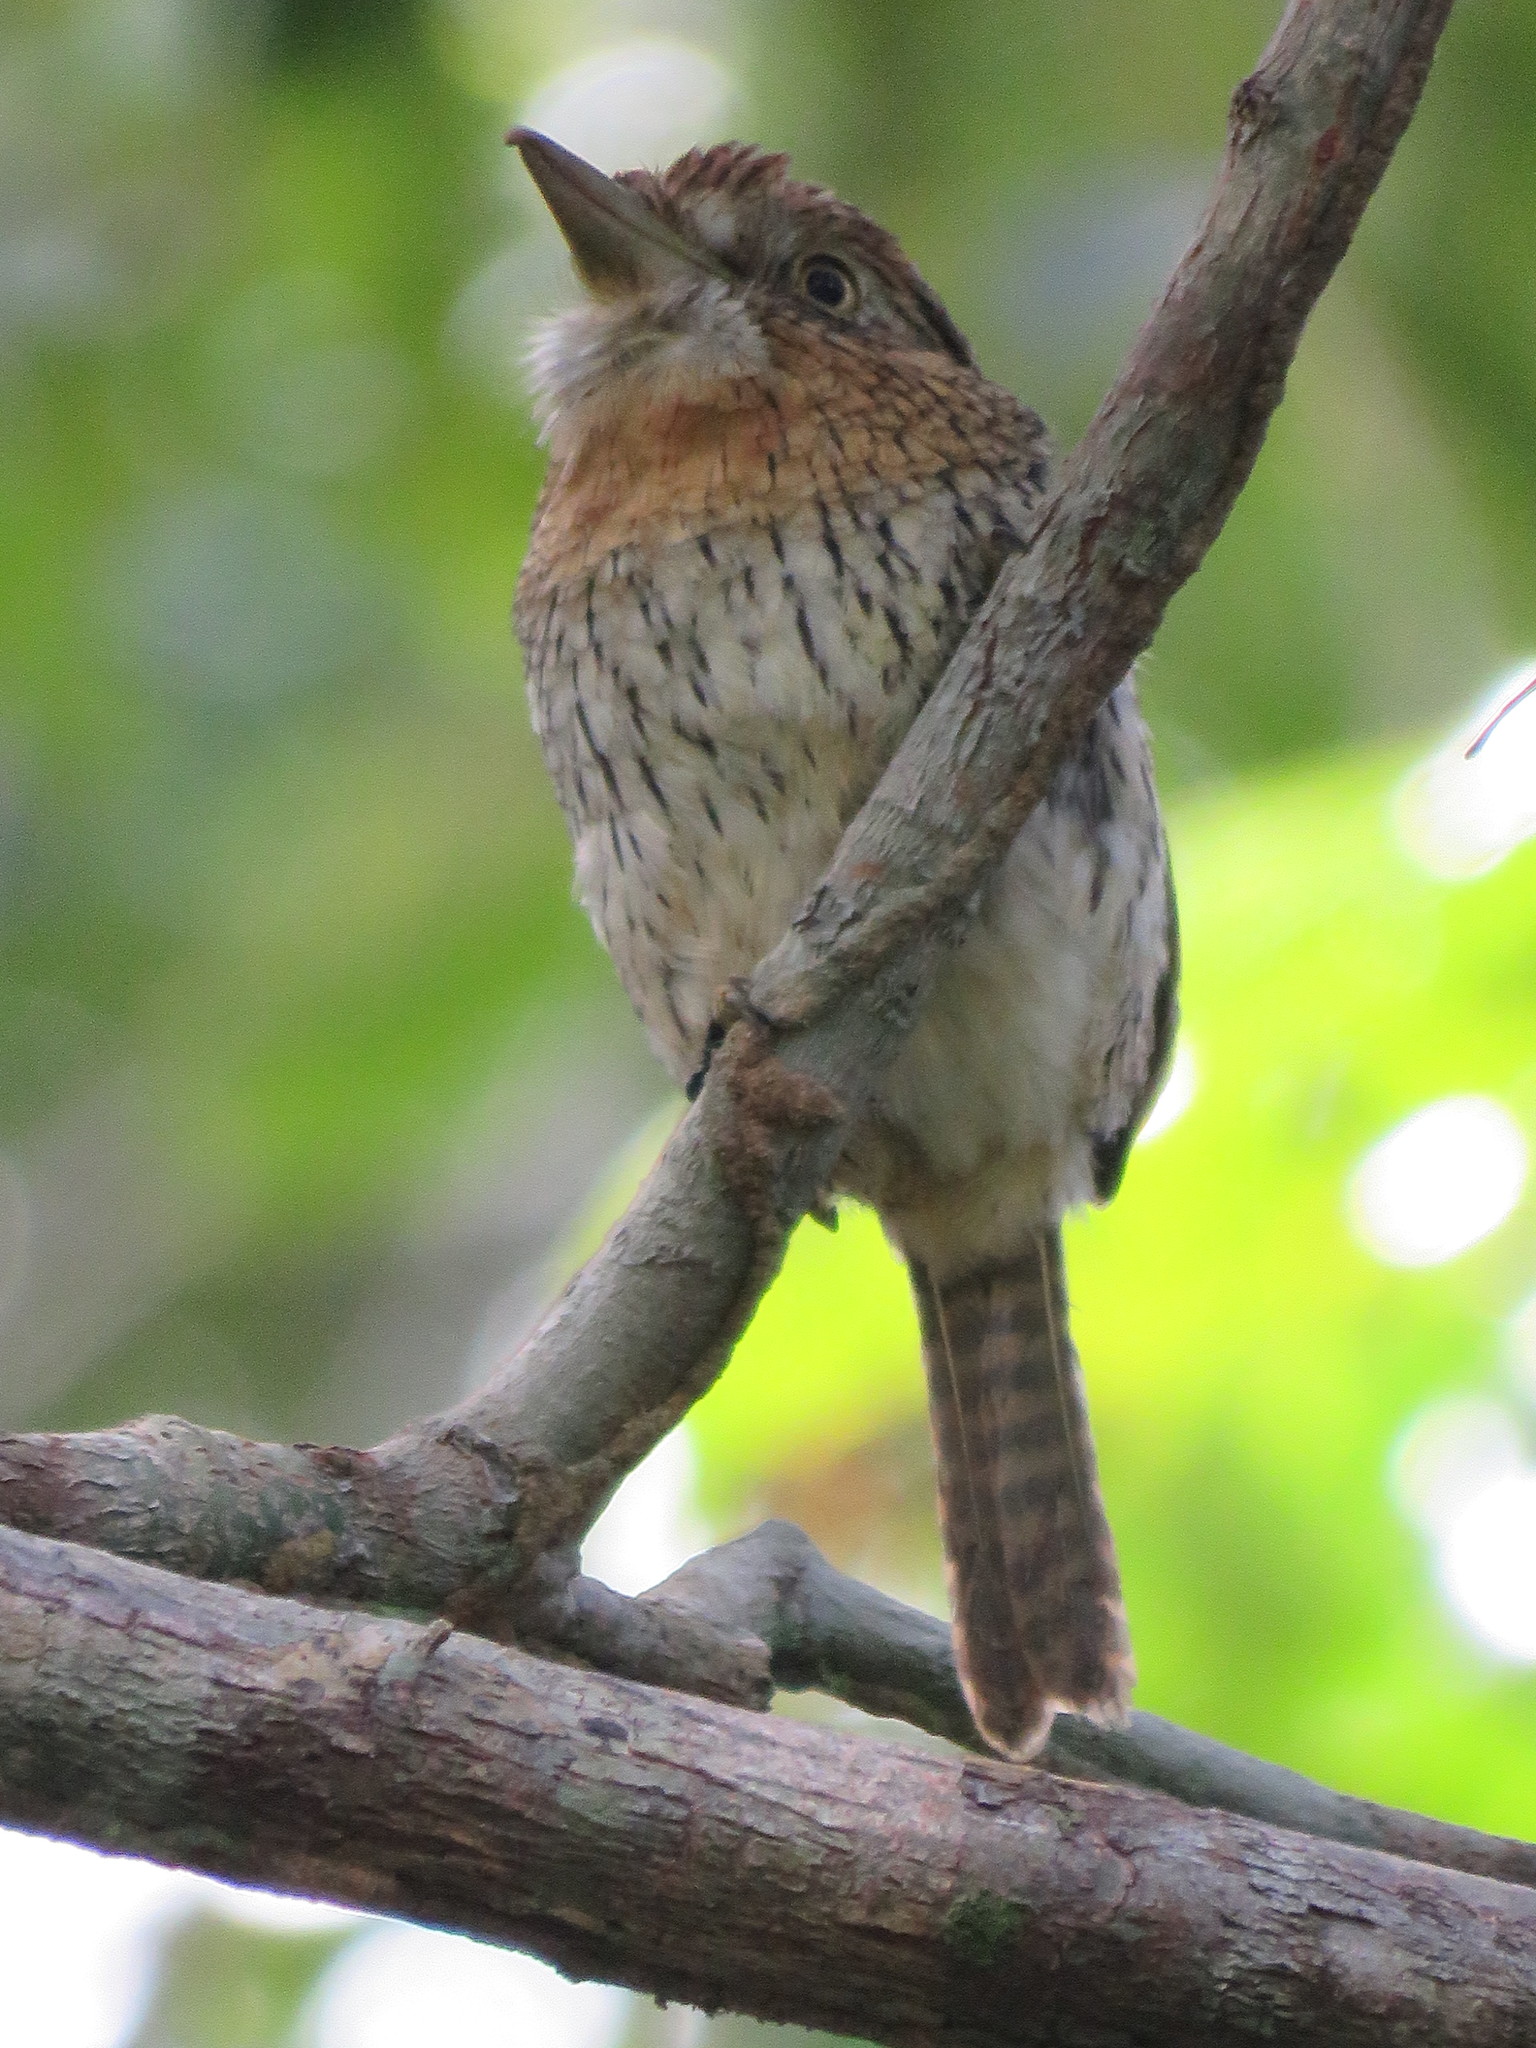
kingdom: Animalia
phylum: Chordata
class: Aves
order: Piciformes
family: Bucconidae
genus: Nystalus
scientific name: Nystalus obamai
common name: Western striolated puffbird
